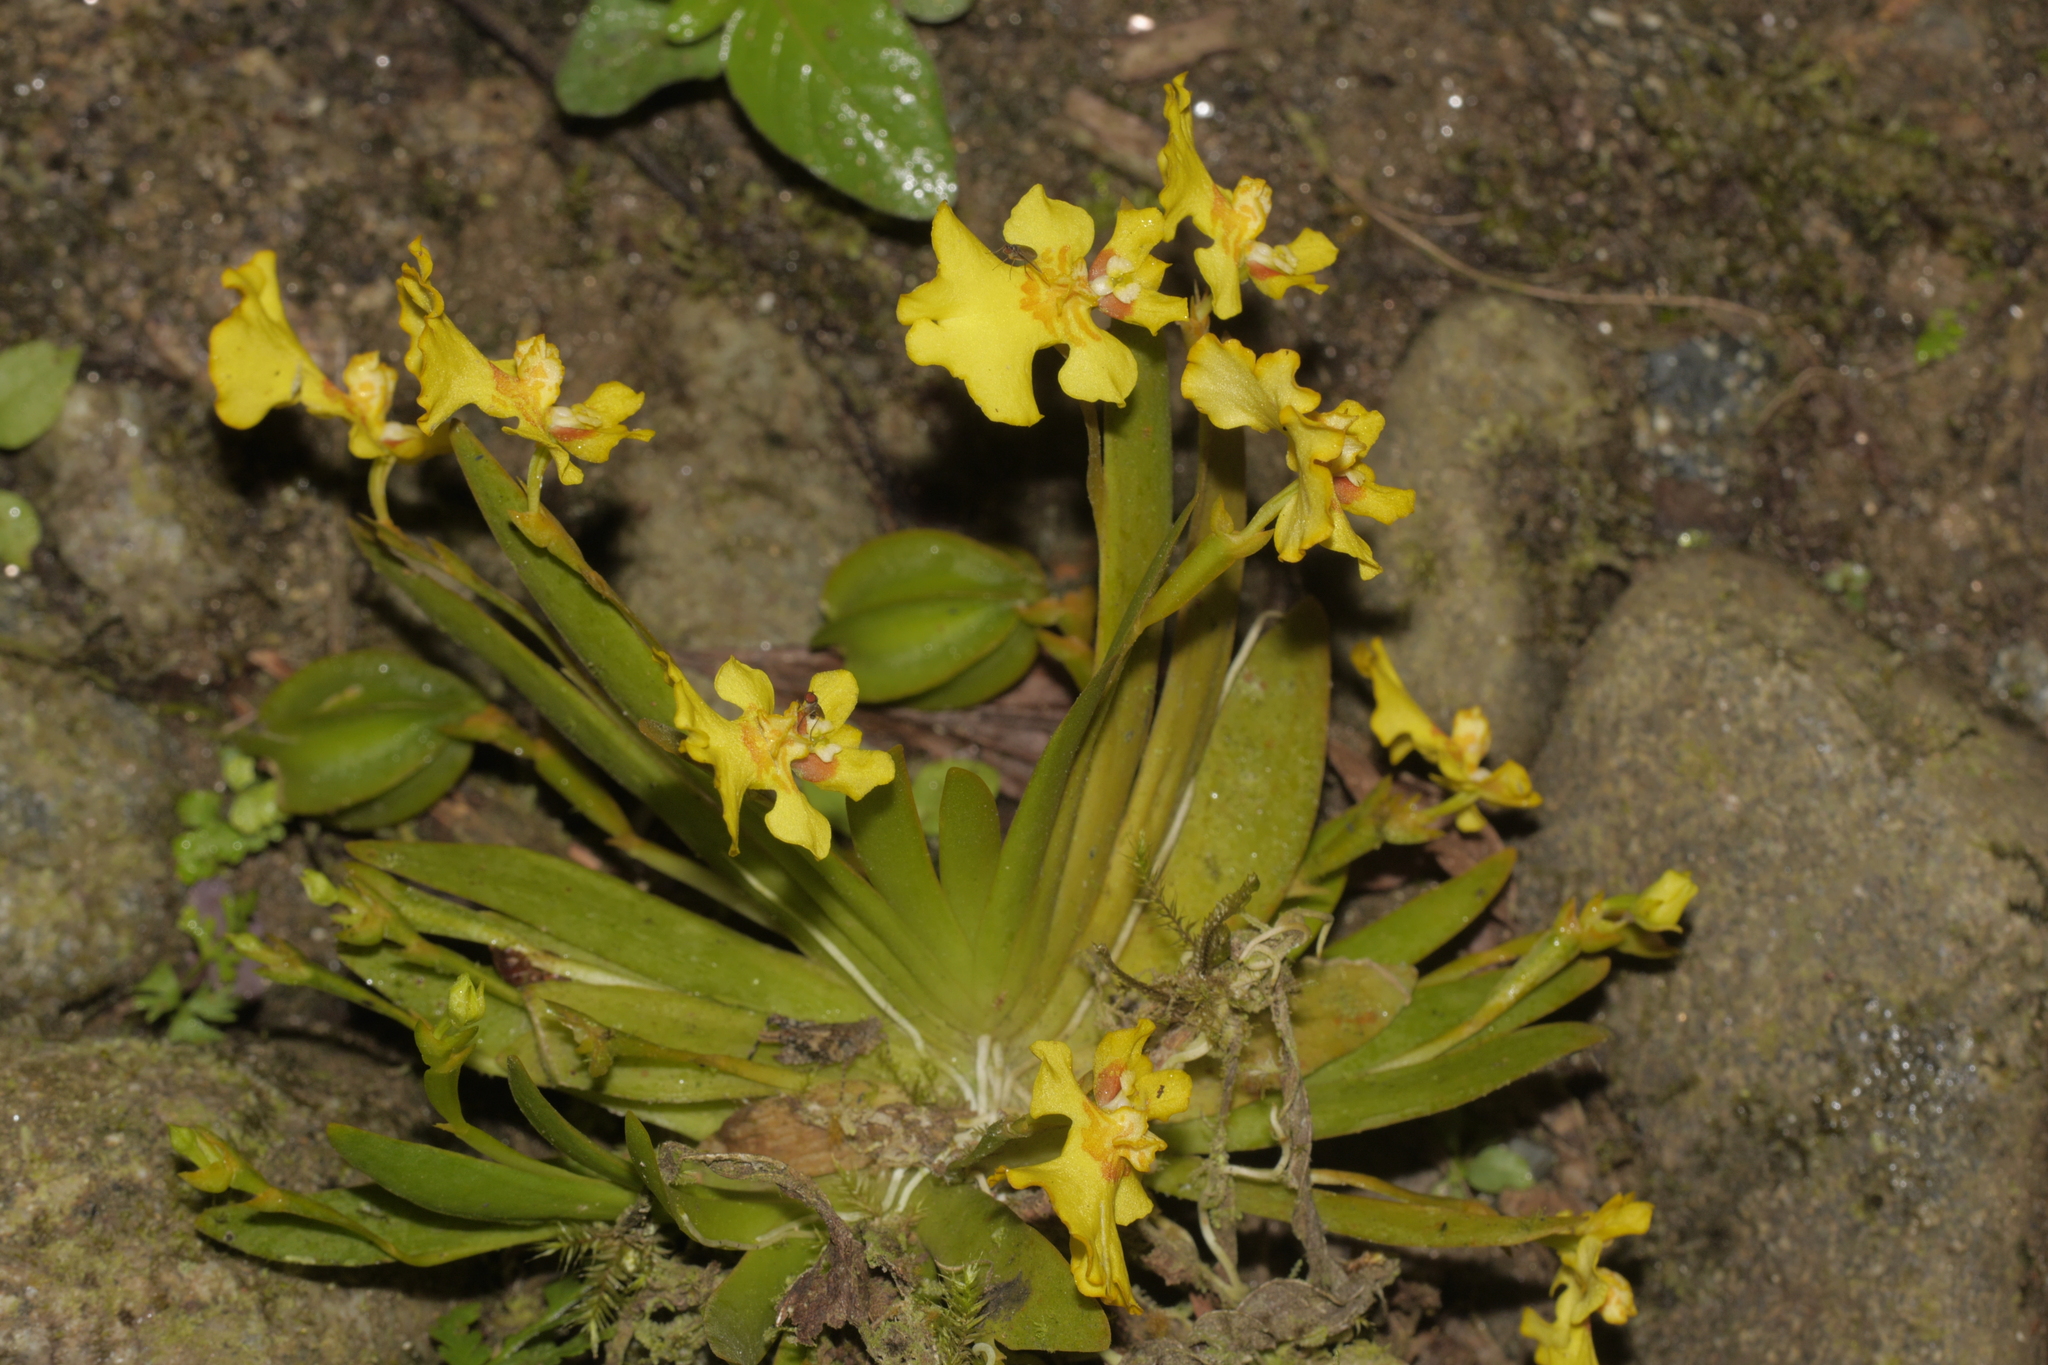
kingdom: Plantae
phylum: Tracheophyta
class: Liliopsida
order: Asparagales
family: Orchidaceae
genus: Erycina
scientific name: Erycina pusilla
